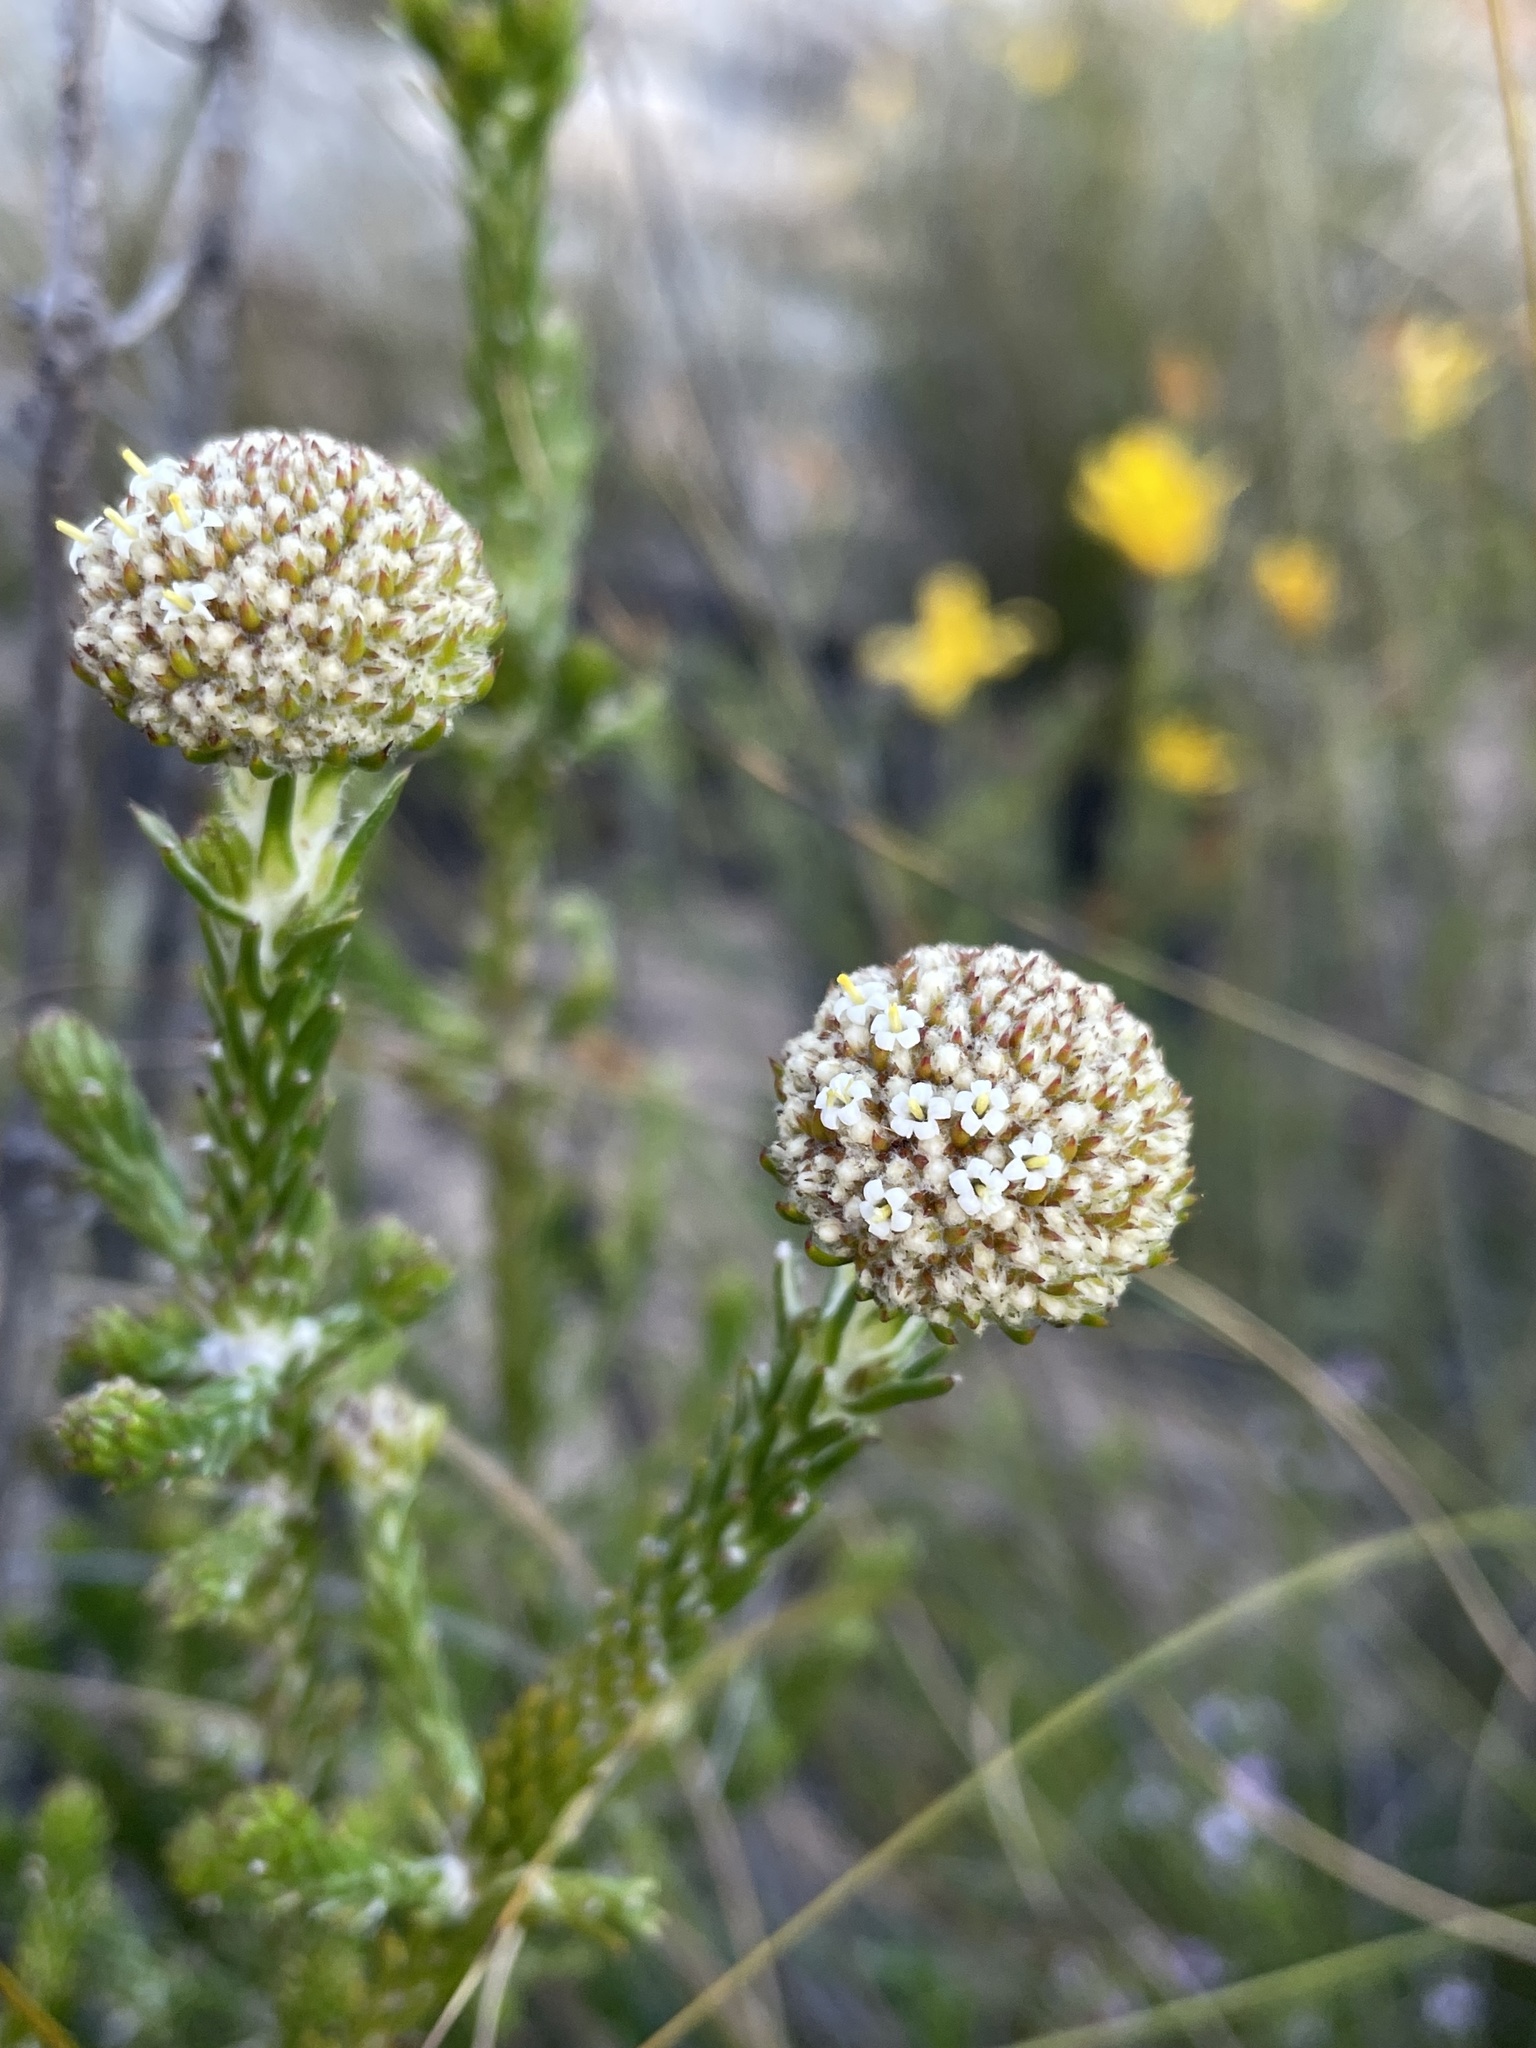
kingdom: Plantae
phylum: Tracheophyta
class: Magnoliopsida
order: Asterales
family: Asteraceae
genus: Stoebe
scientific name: Stoebe aethiopica
